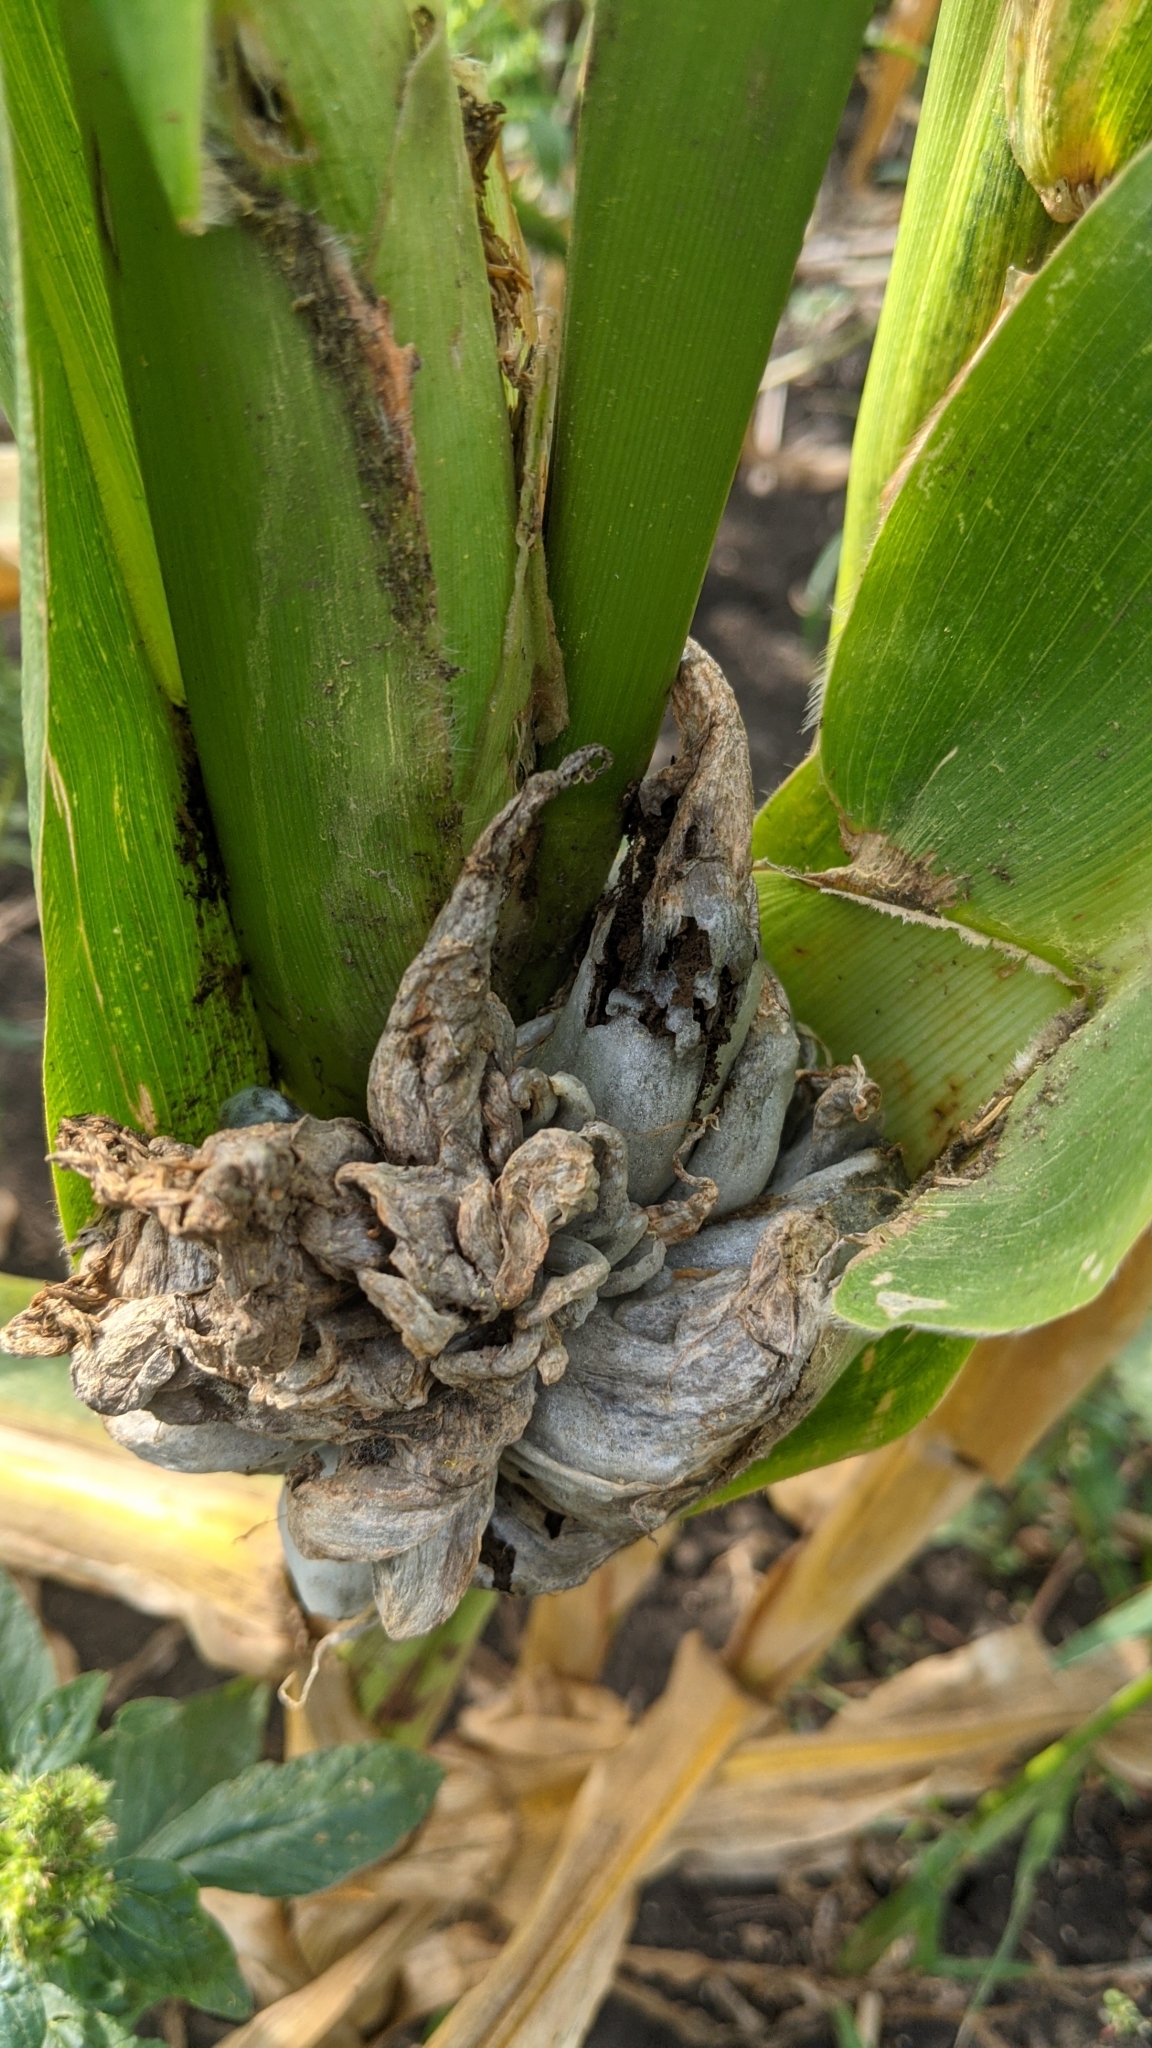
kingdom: Fungi
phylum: Basidiomycota
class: Ustilaginomycetes
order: Ustilaginales
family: Ustilaginaceae
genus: Mycosarcoma
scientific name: Mycosarcoma maydis
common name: Corn smut
